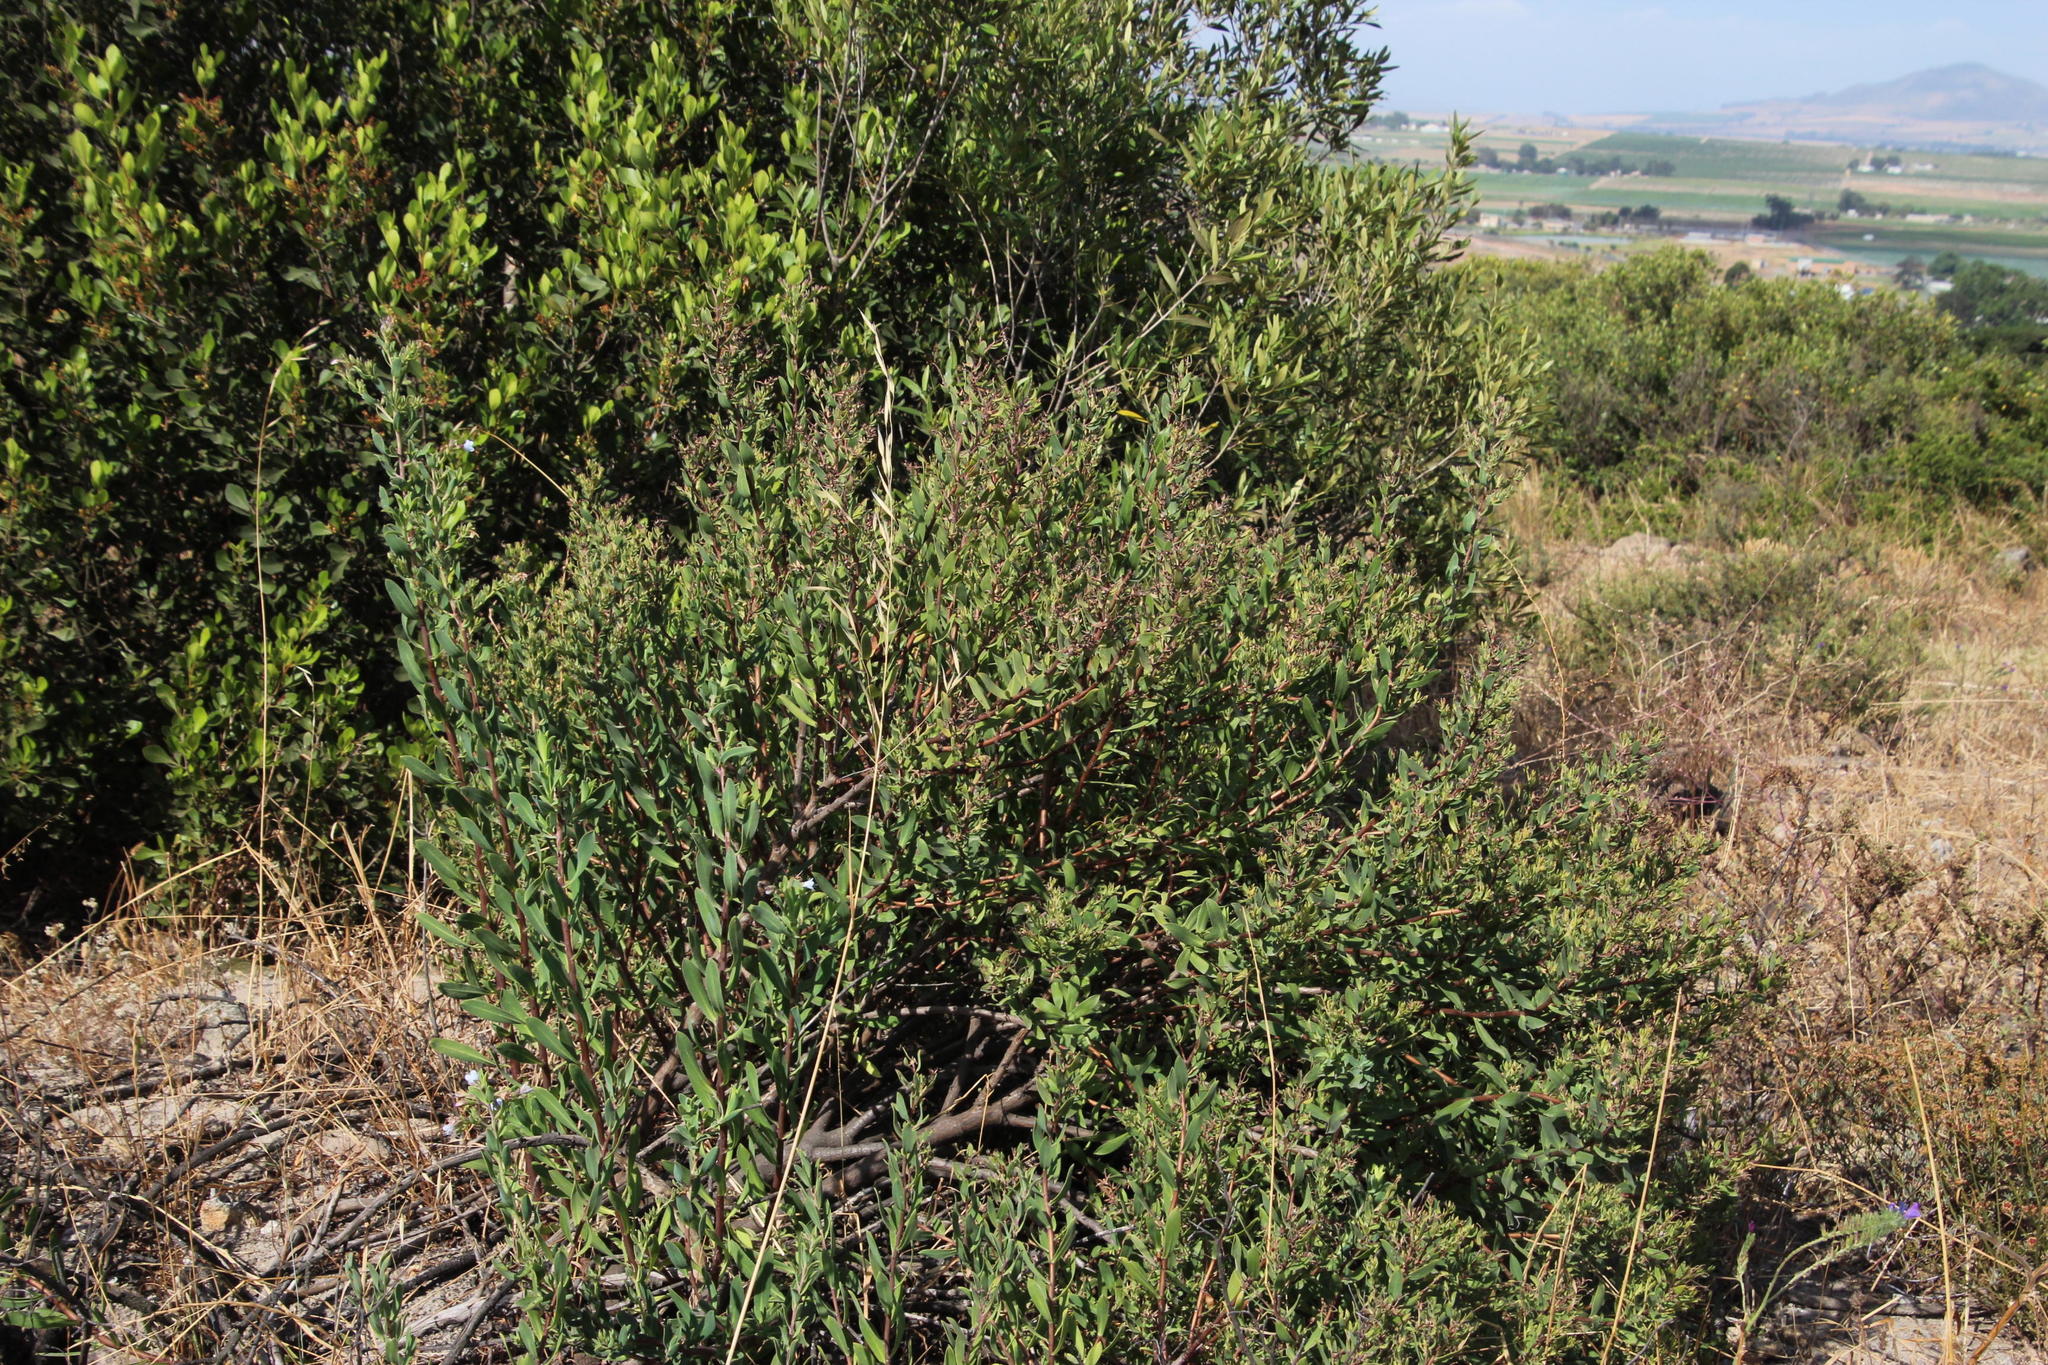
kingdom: Plantae
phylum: Tracheophyta
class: Magnoliopsida
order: Boraginales
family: Boraginaceae
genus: Lobostemon
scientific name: Lobostemon glaucophyllus
